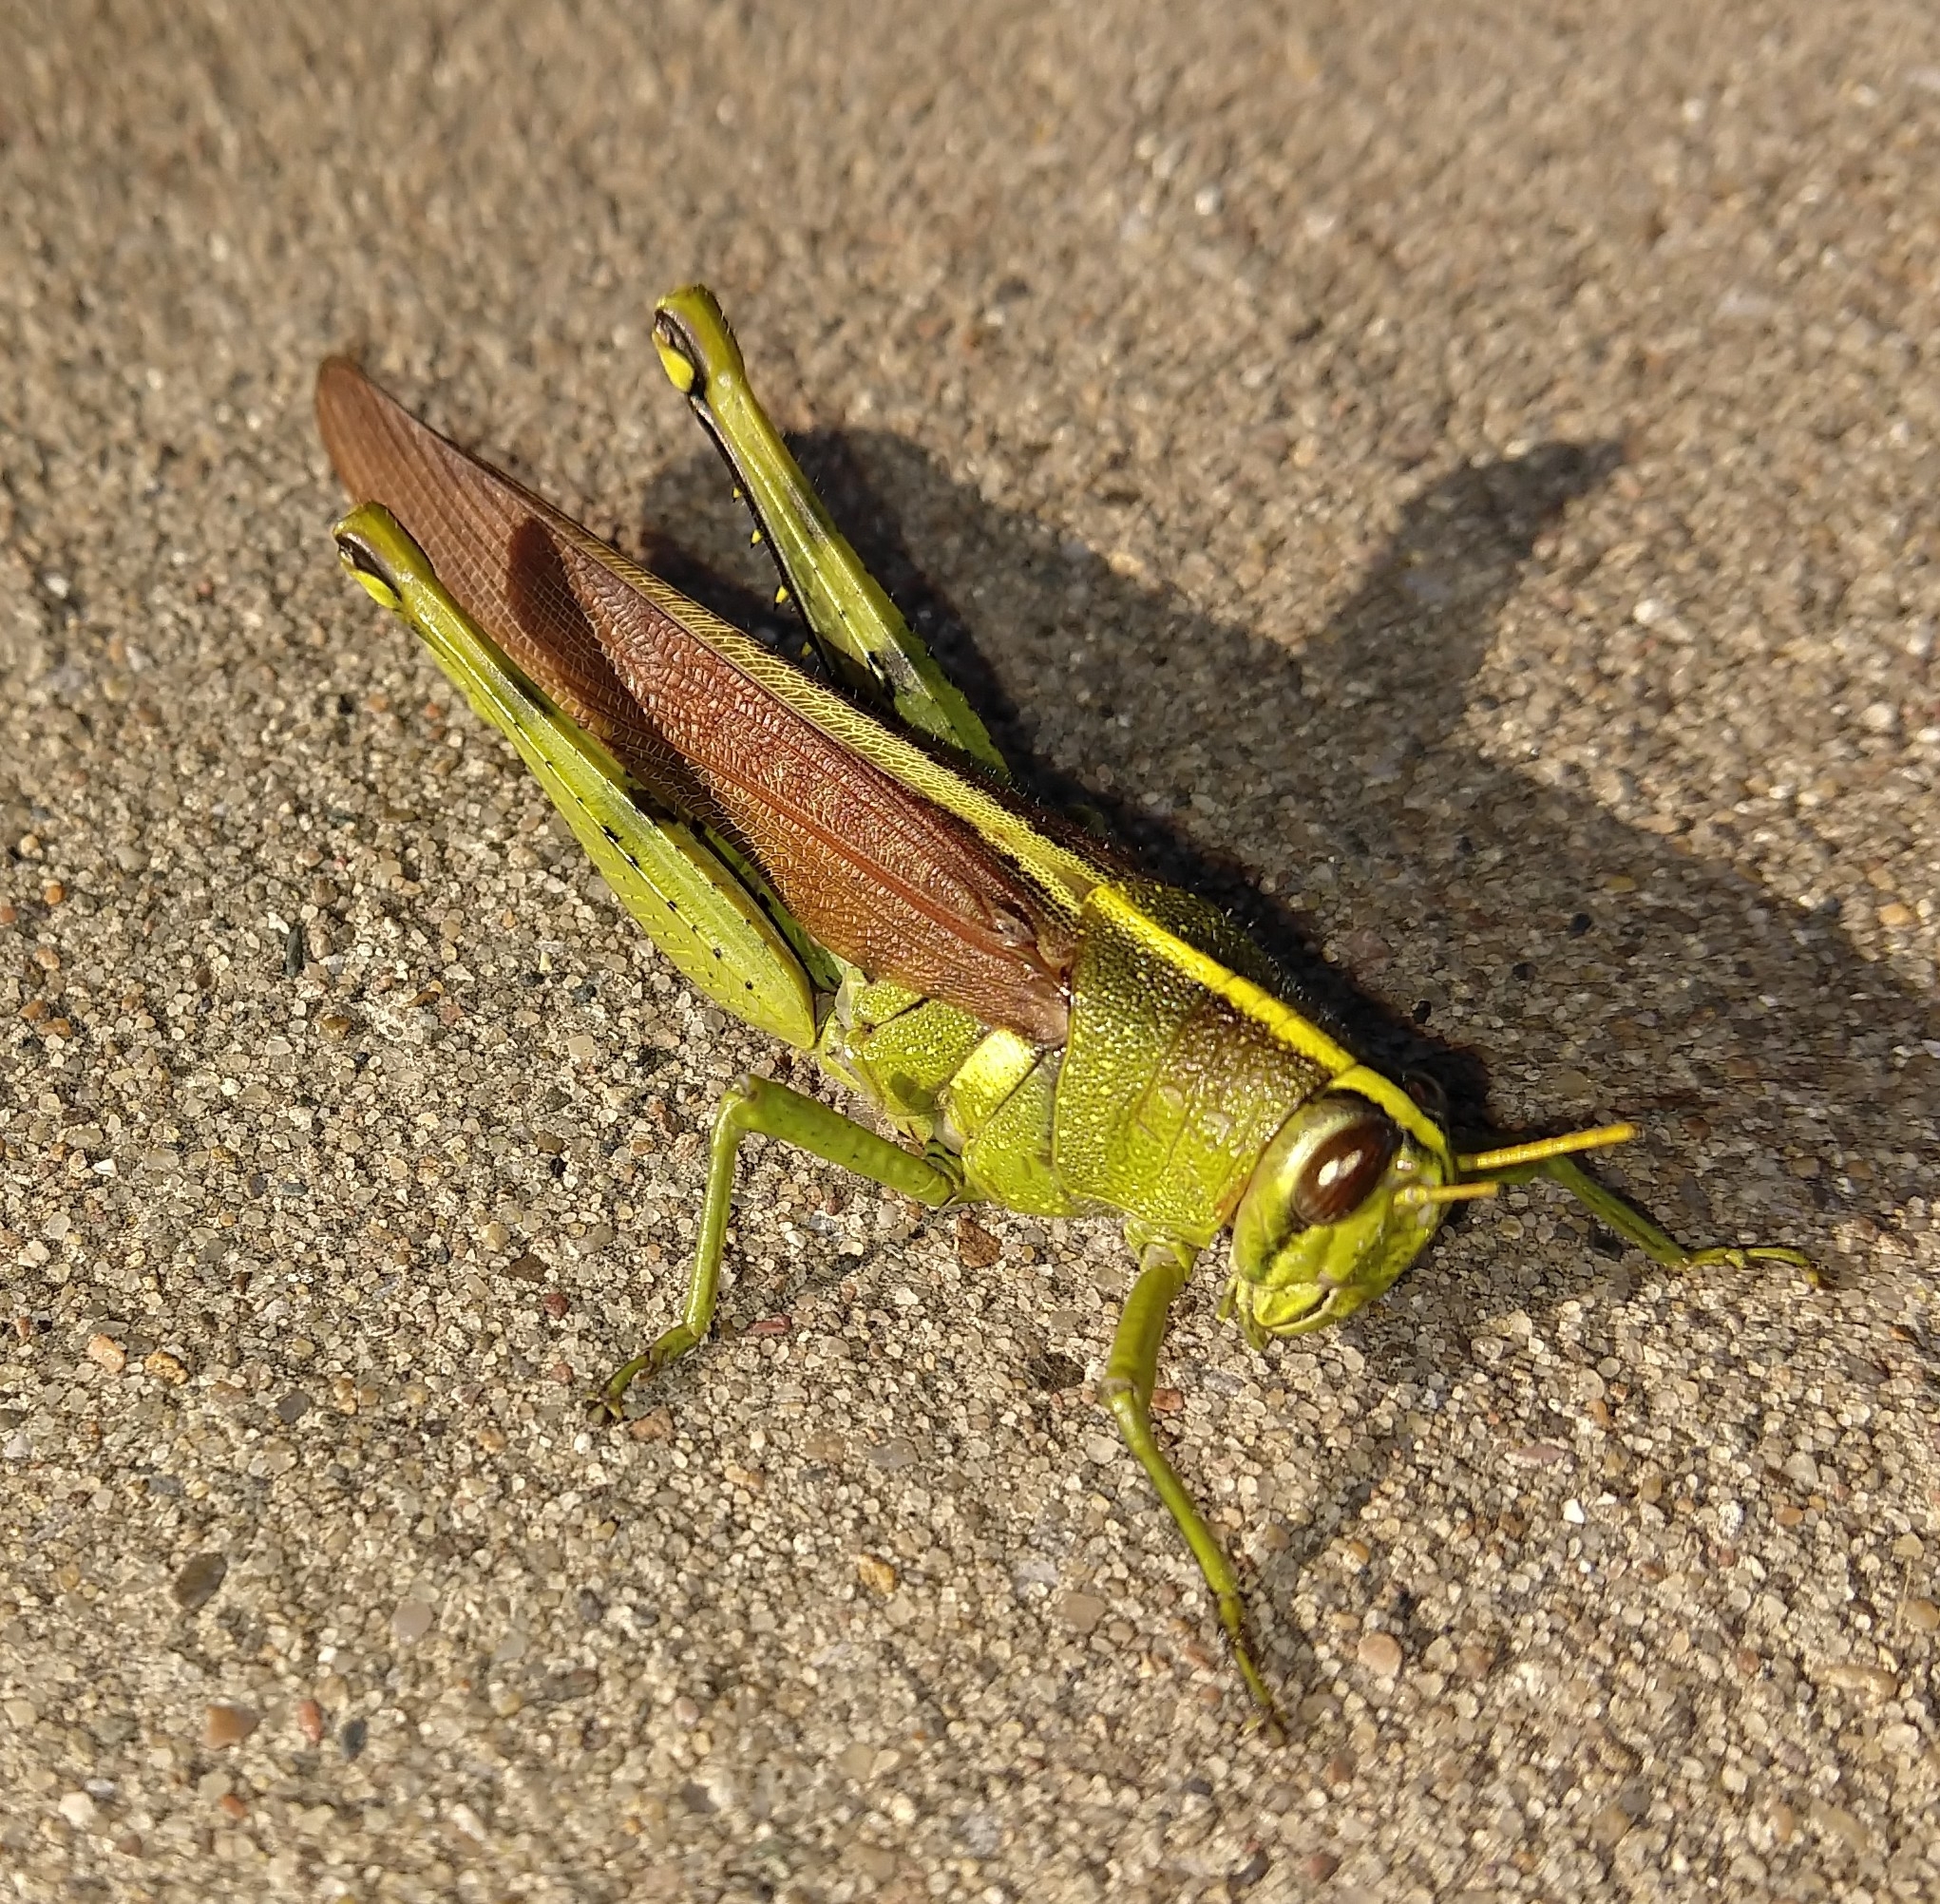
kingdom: Animalia
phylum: Arthropoda
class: Insecta
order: Orthoptera
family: Acrididae
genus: Schistocerca
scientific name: Schistocerca obscura
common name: Obscure bird grasshopper
